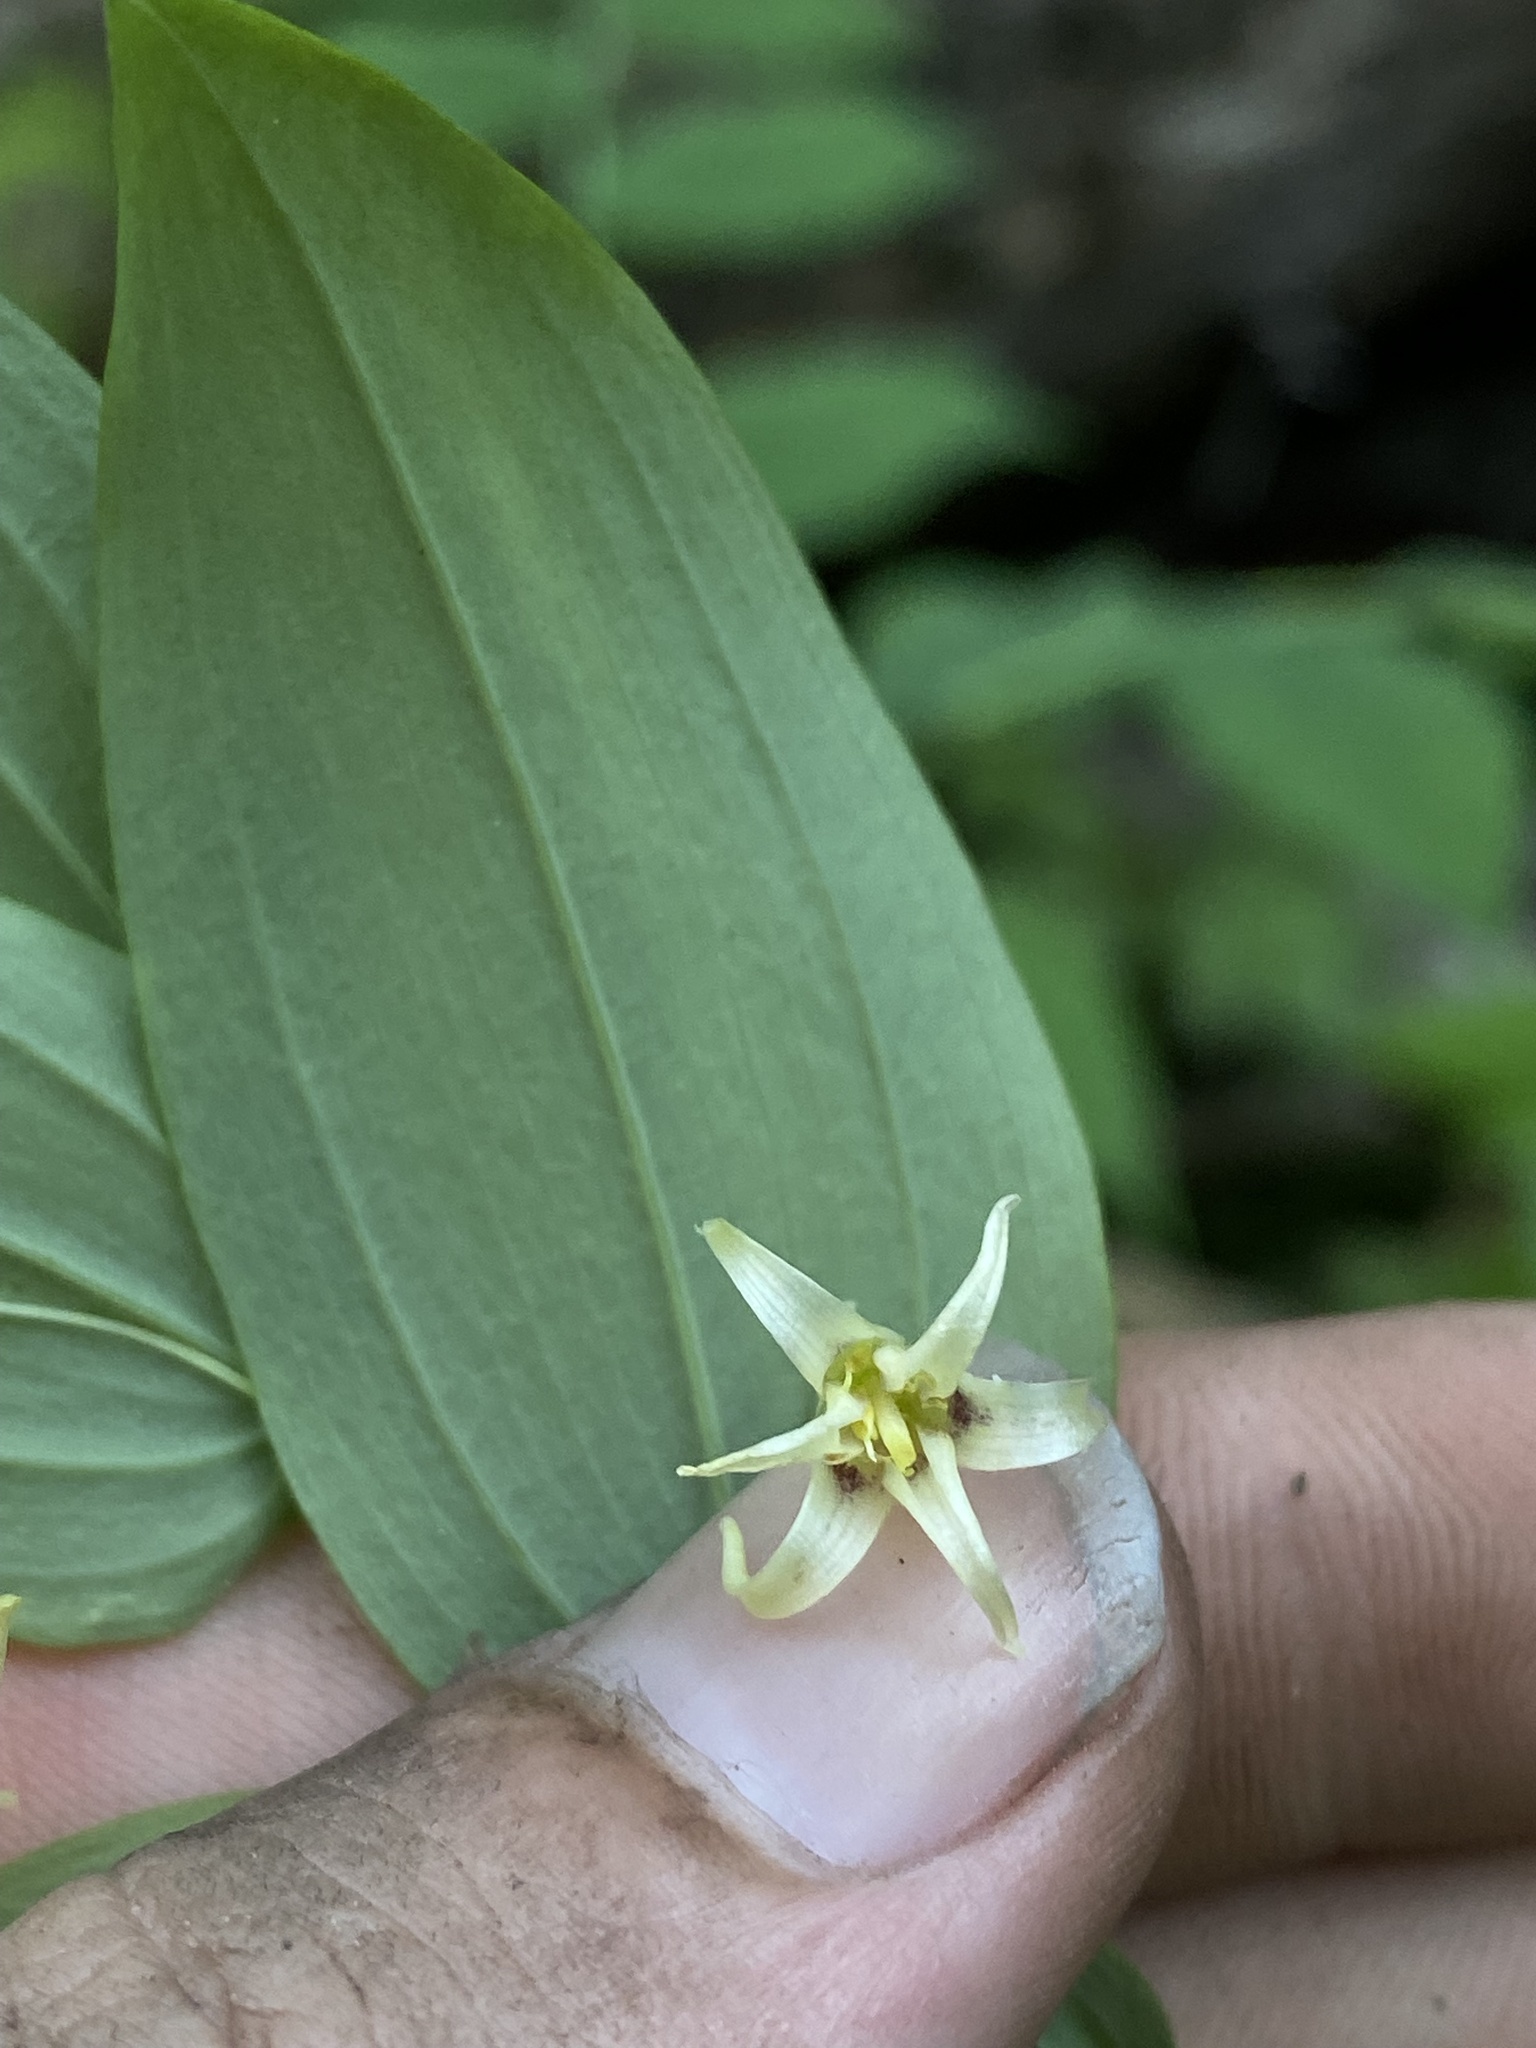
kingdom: Plantae
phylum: Tracheophyta
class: Liliopsida
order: Liliales
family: Liliaceae
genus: Streptopus
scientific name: Streptopus amplexifolius
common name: Clasp twisted stalk
